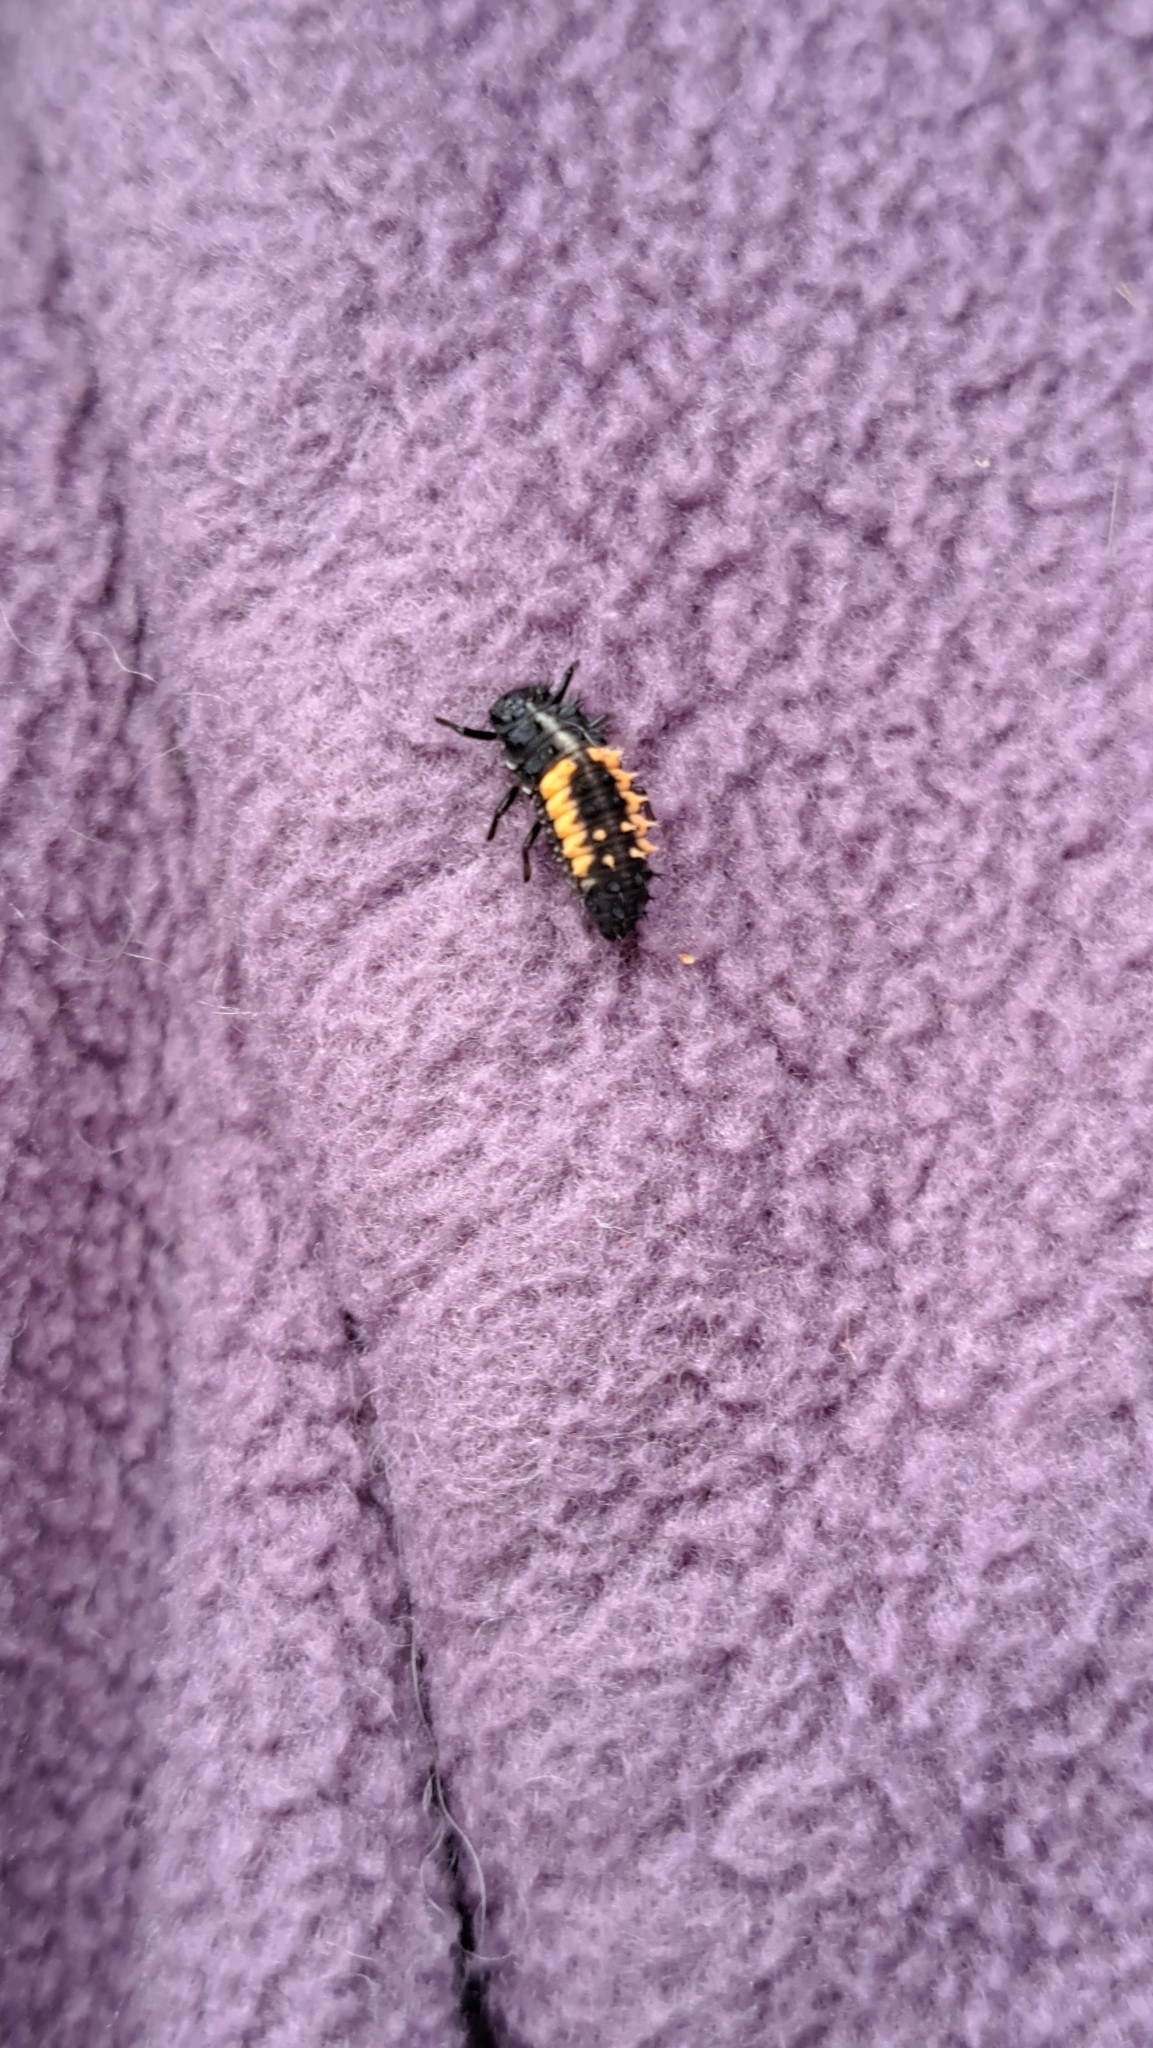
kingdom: Animalia
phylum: Arthropoda
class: Insecta
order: Coleoptera
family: Coccinellidae
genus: Harmonia
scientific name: Harmonia axyridis
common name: Harlequin ladybird
